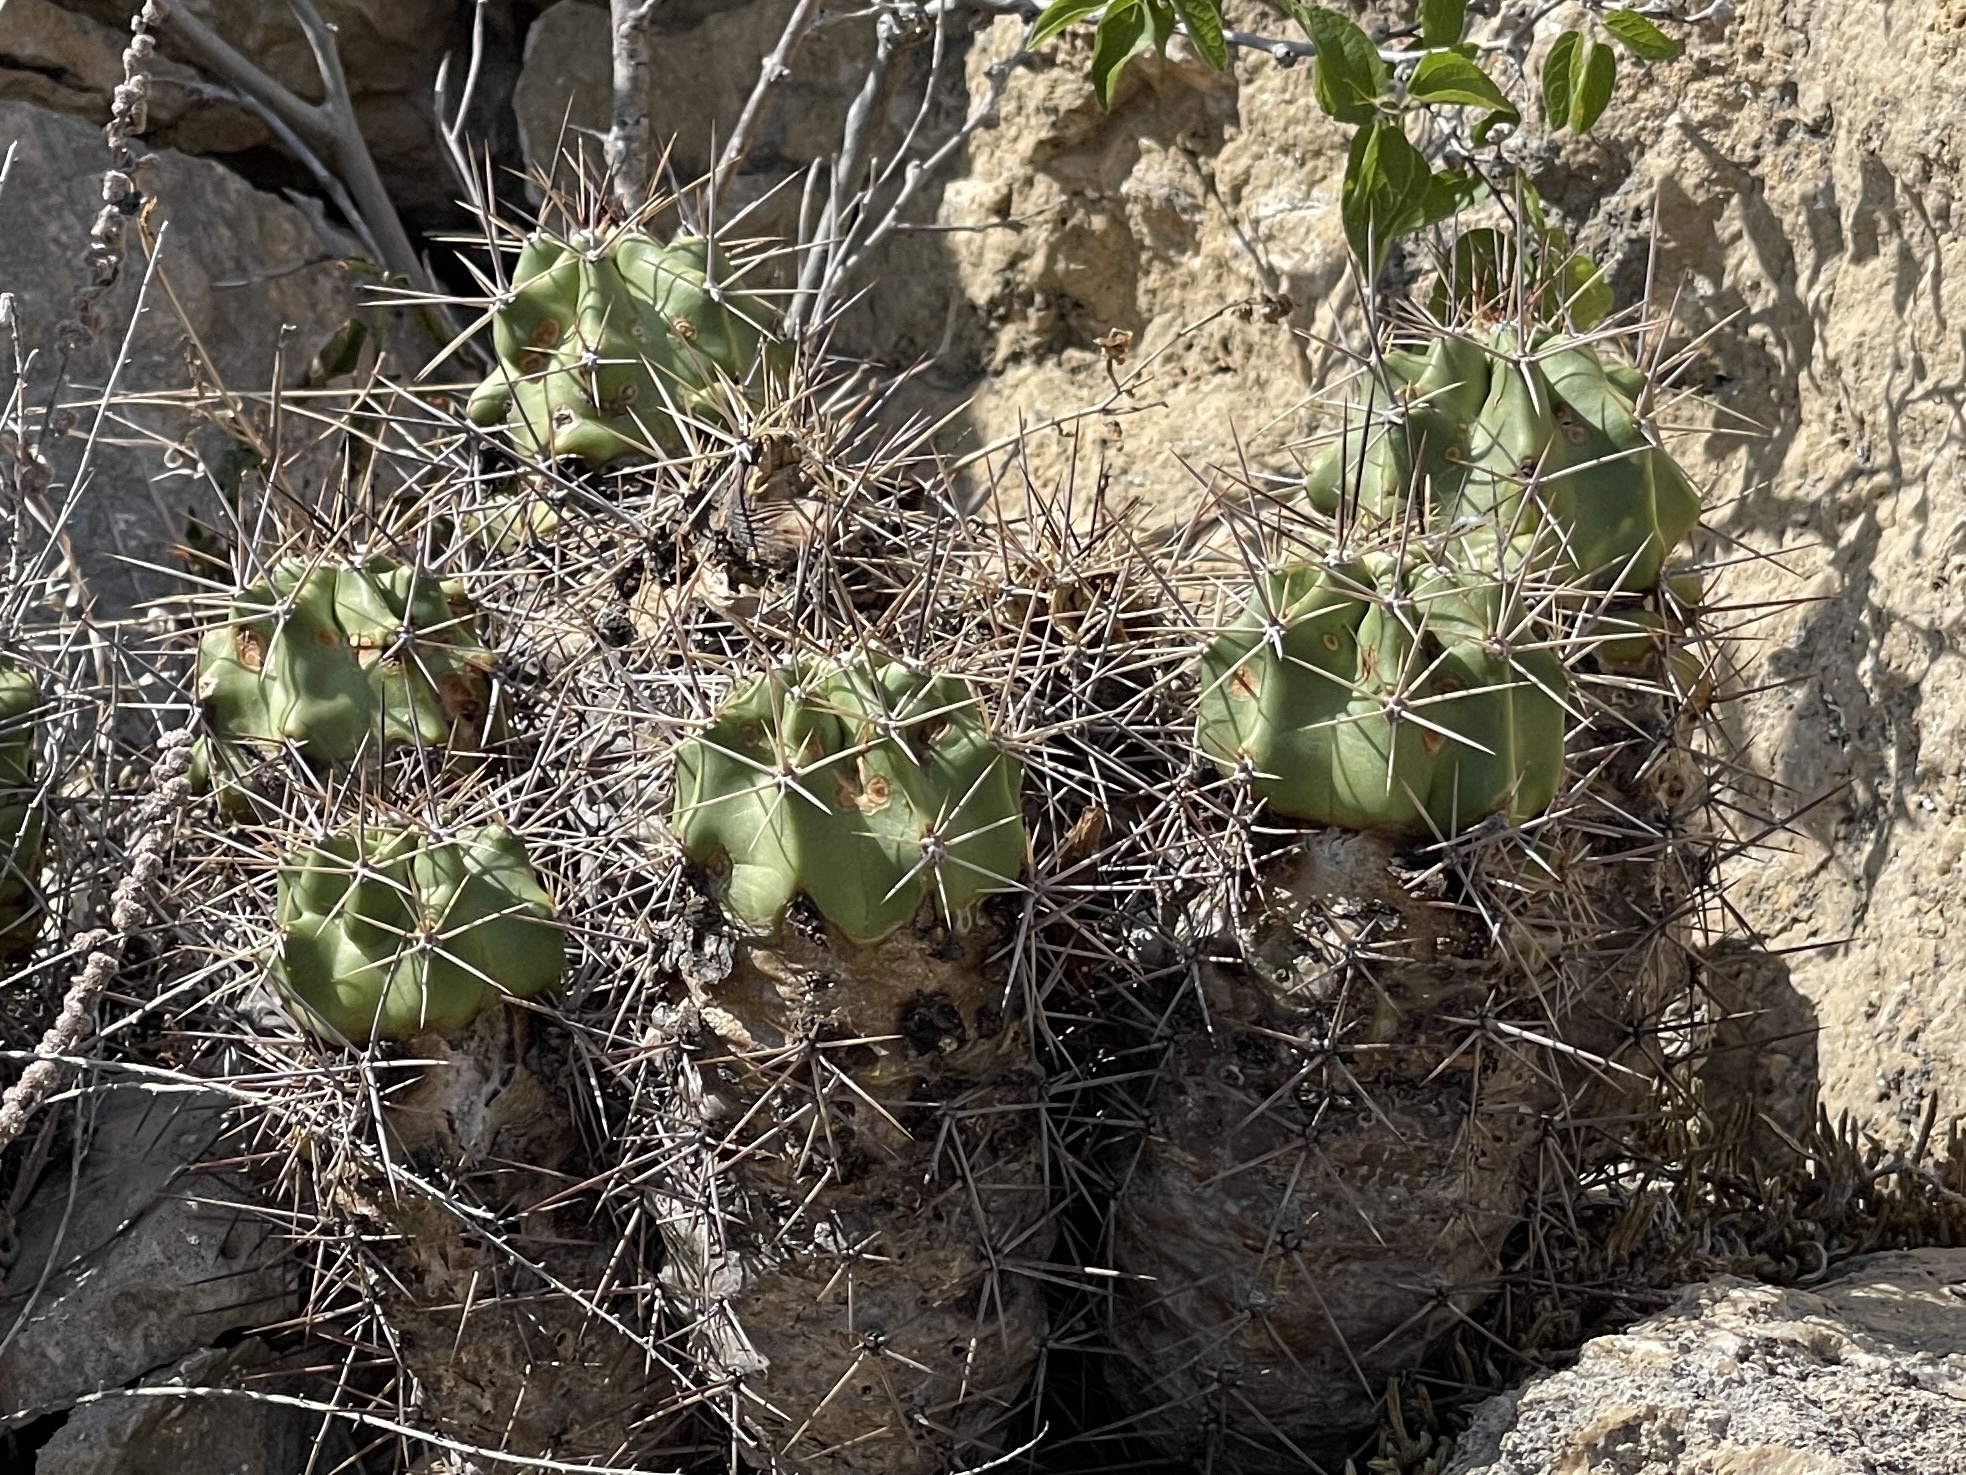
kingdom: Plantae
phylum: Tracheophyta
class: Magnoliopsida
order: Caryophyllales
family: Cactaceae
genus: Echinocereus
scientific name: Echinocereus coccineus
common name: Scarlet hedgehog cactus
